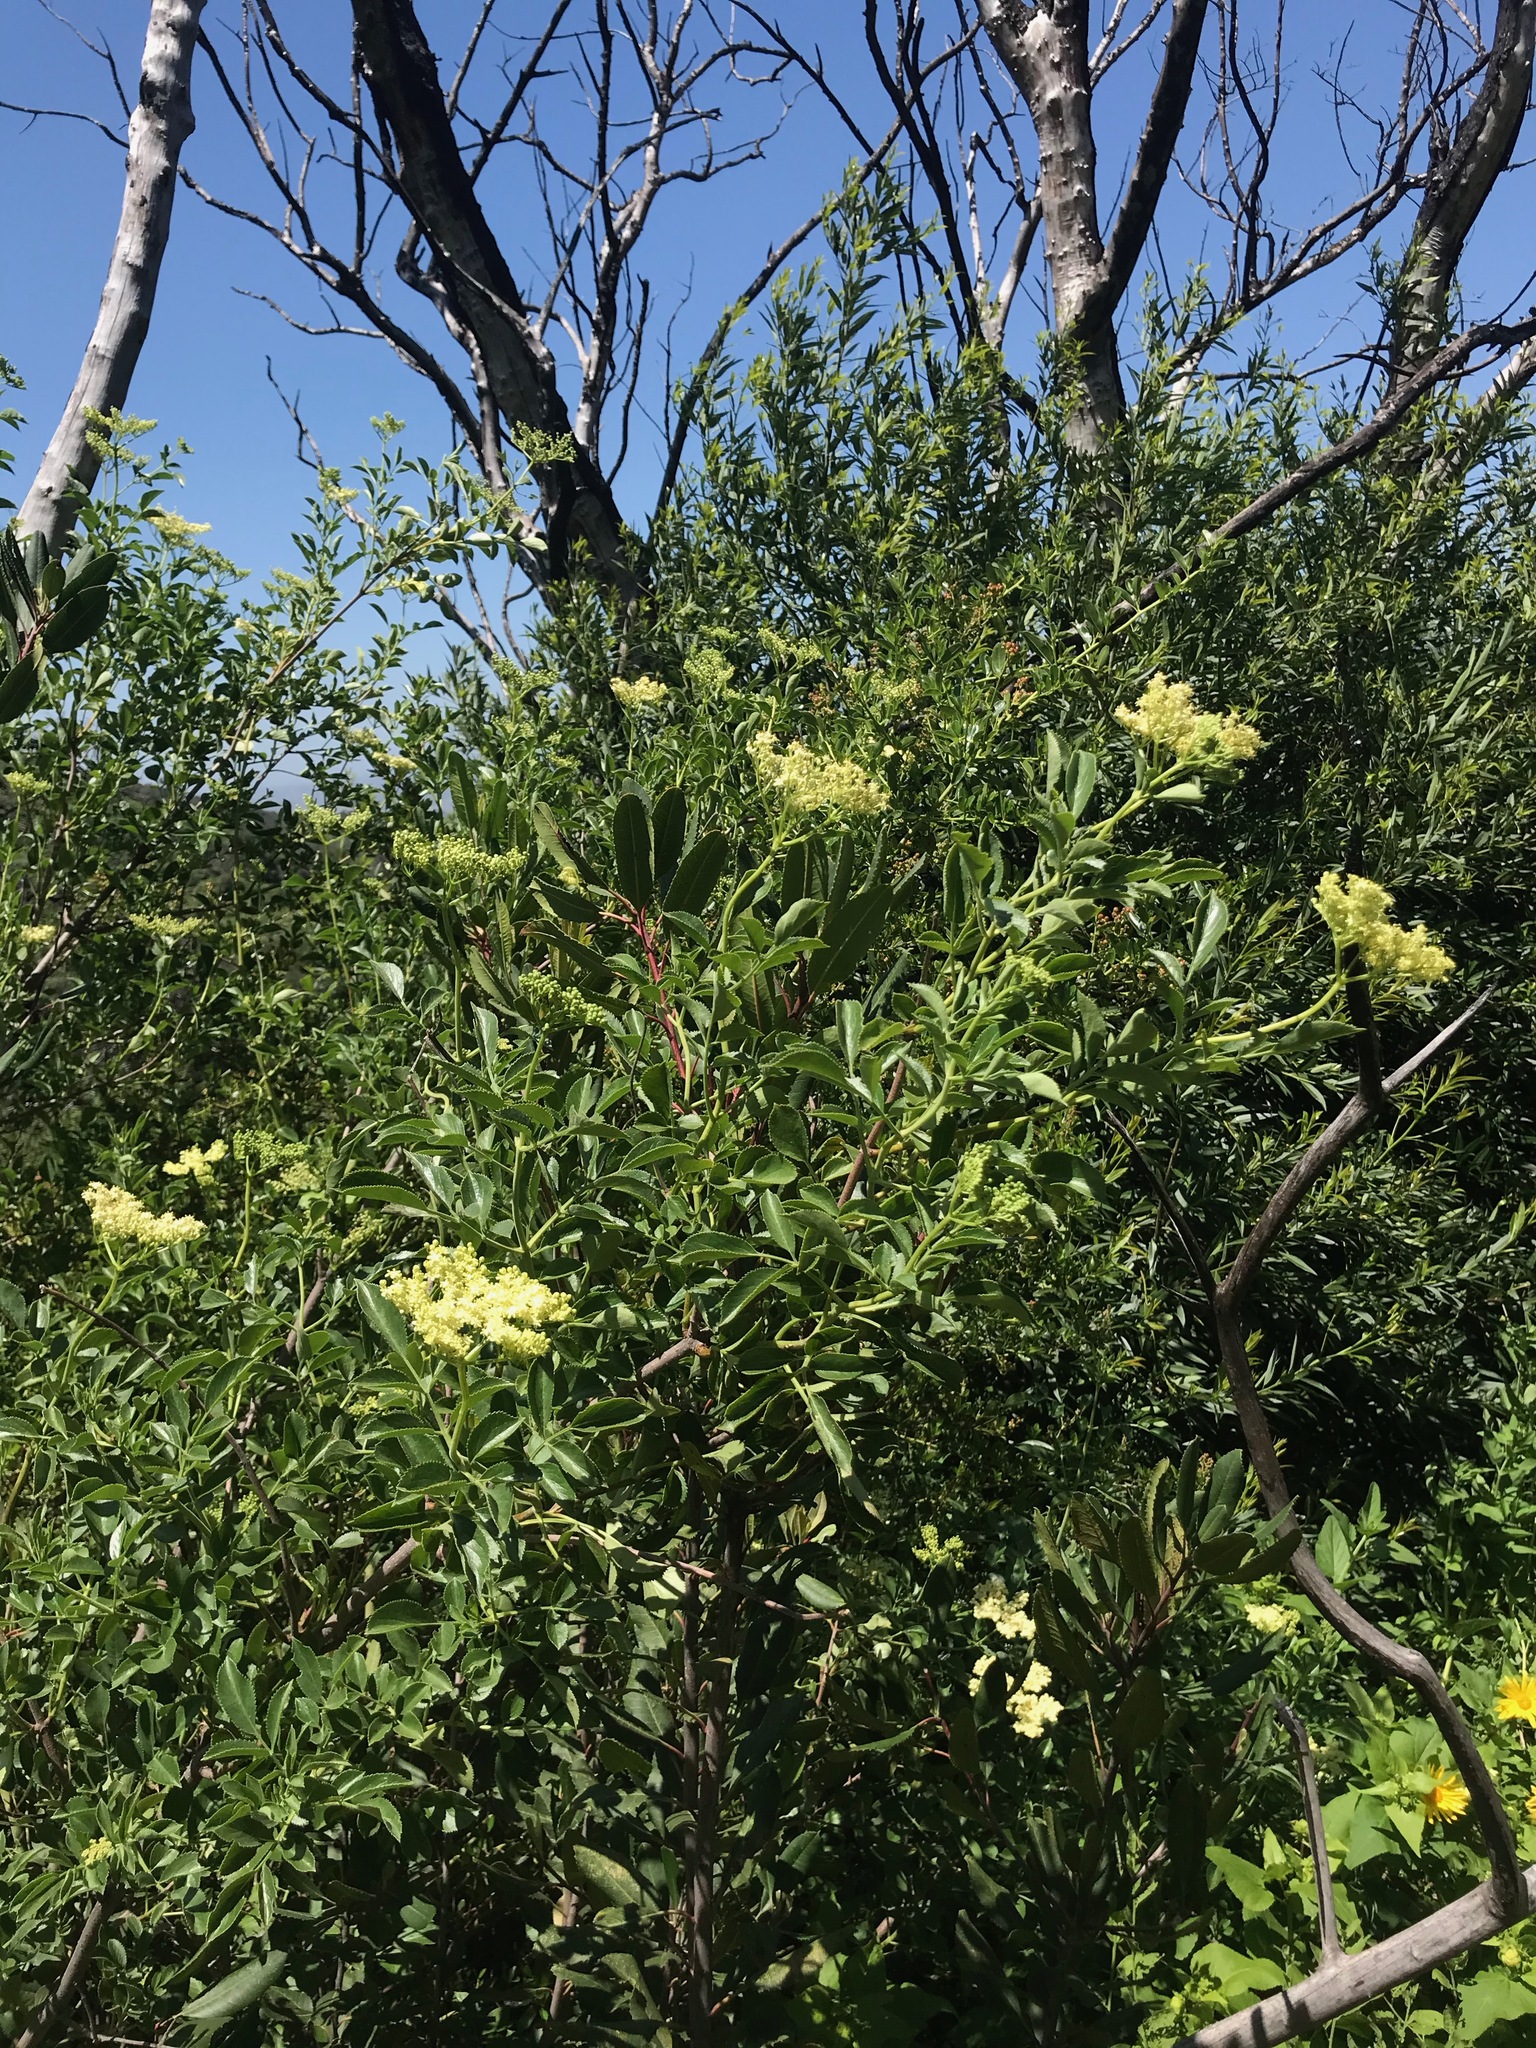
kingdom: Plantae
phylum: Tracheophyta
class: Magnoliopsida
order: Dipsacales
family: Viburnaceae
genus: Sambucus
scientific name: Sambucus cerulea
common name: Blue elder
